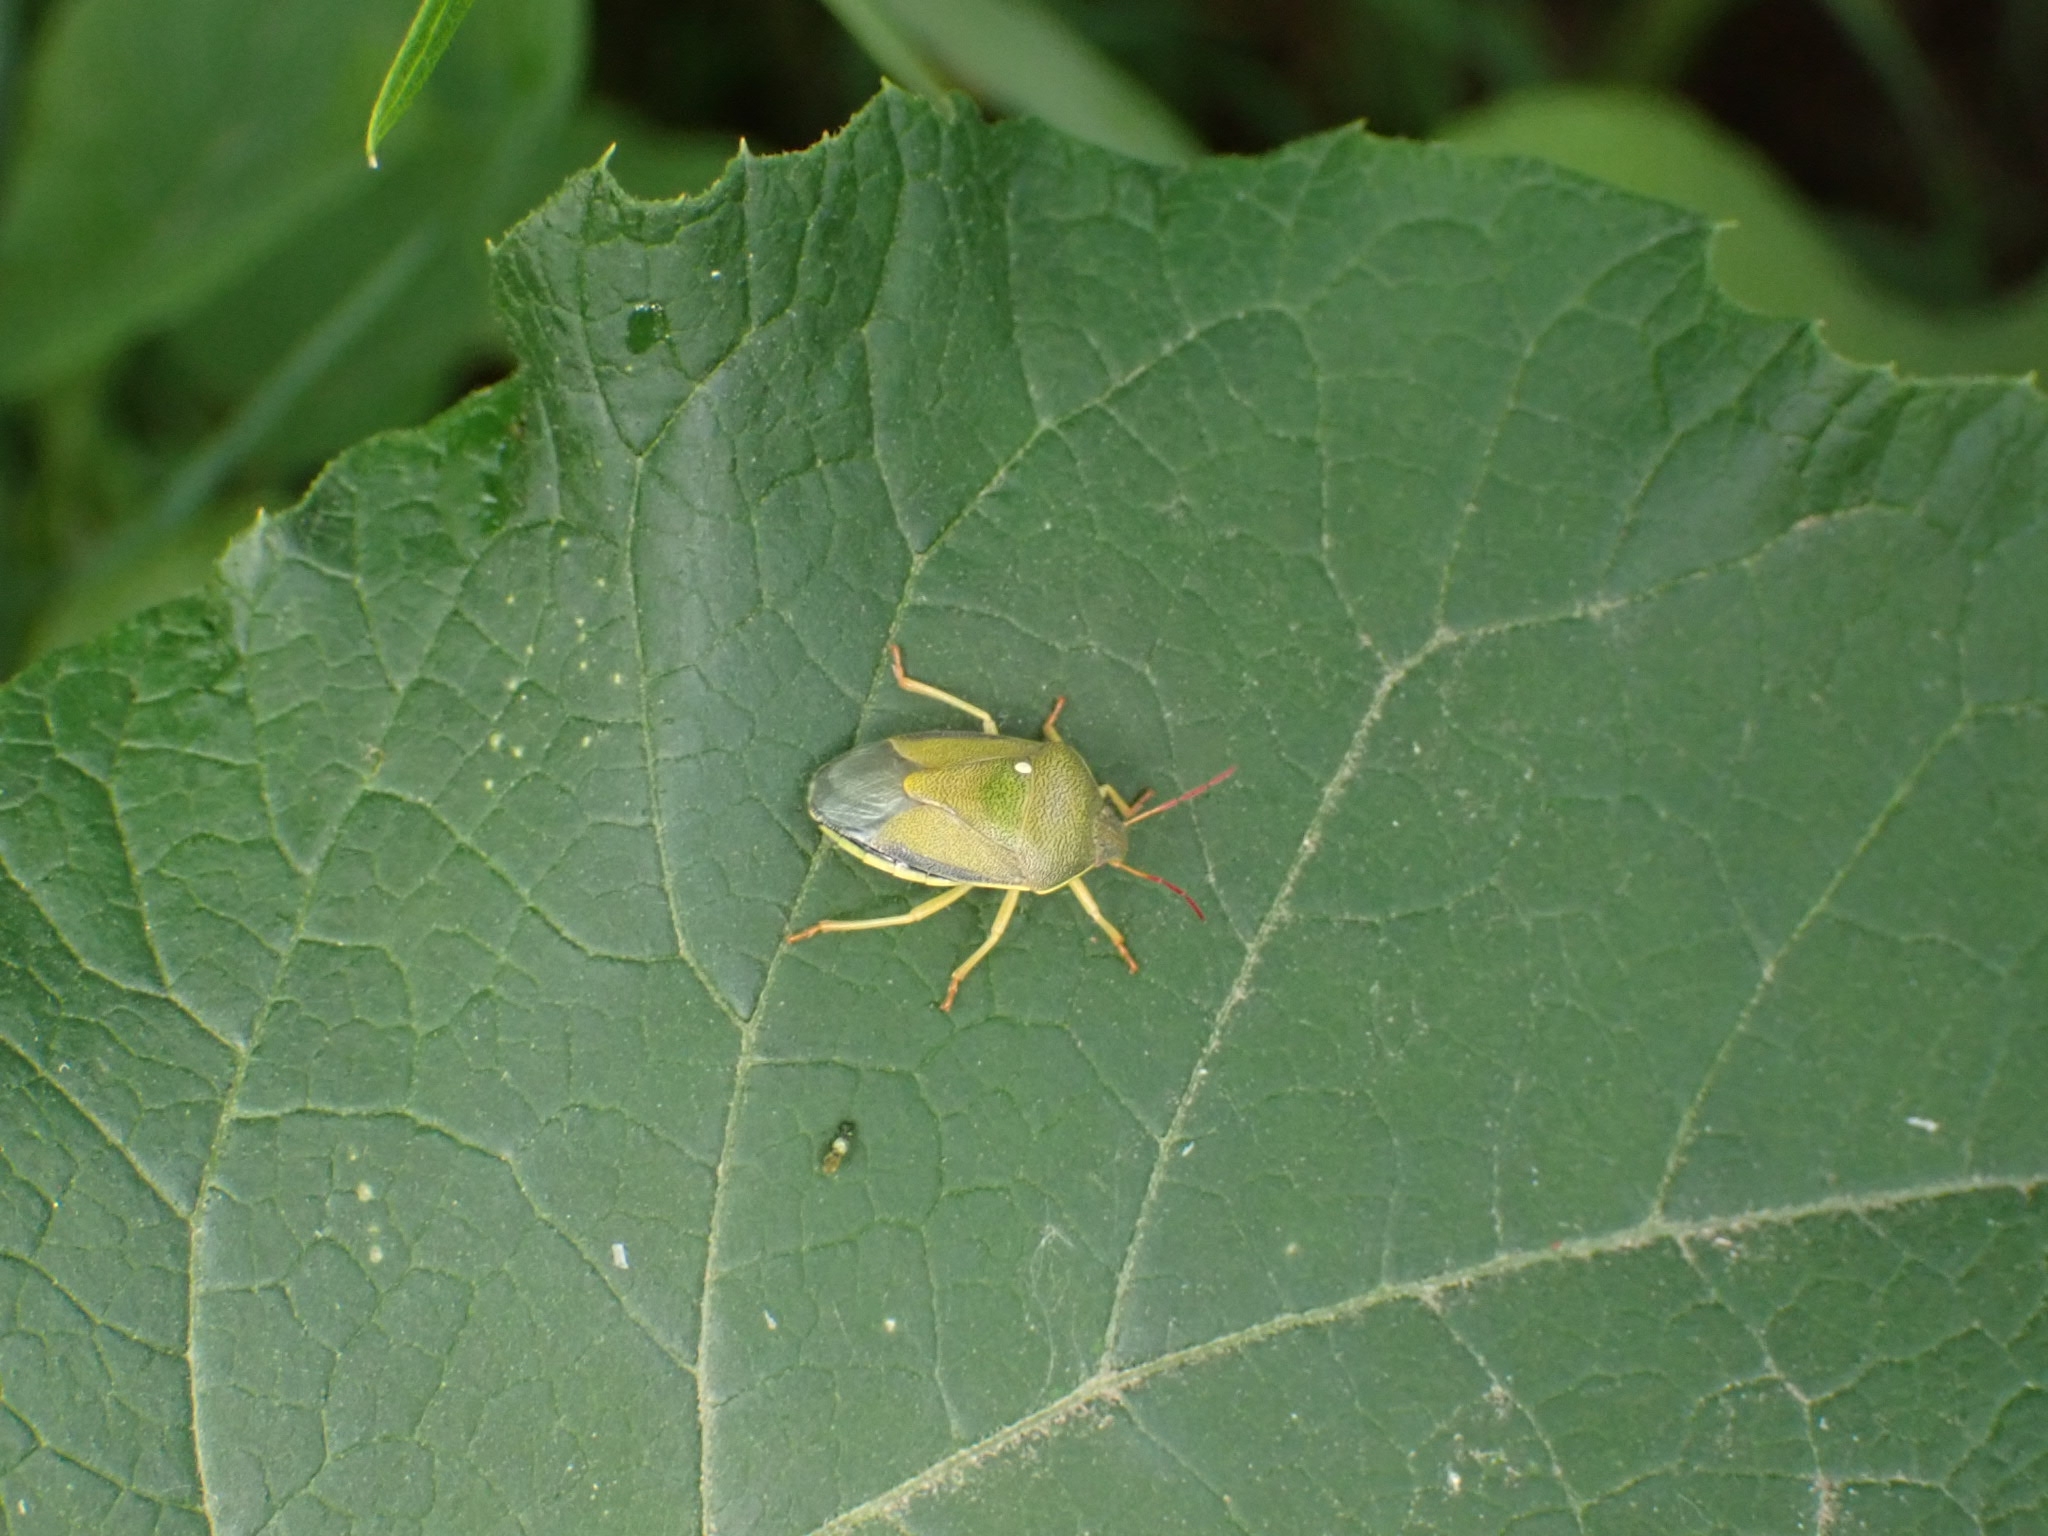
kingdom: Animalia
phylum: Arthropoda
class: Insecta
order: Hemiptera
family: Pentatomidae
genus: Piezodorus
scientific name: Piezodorus lituratus
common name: Stink bug
